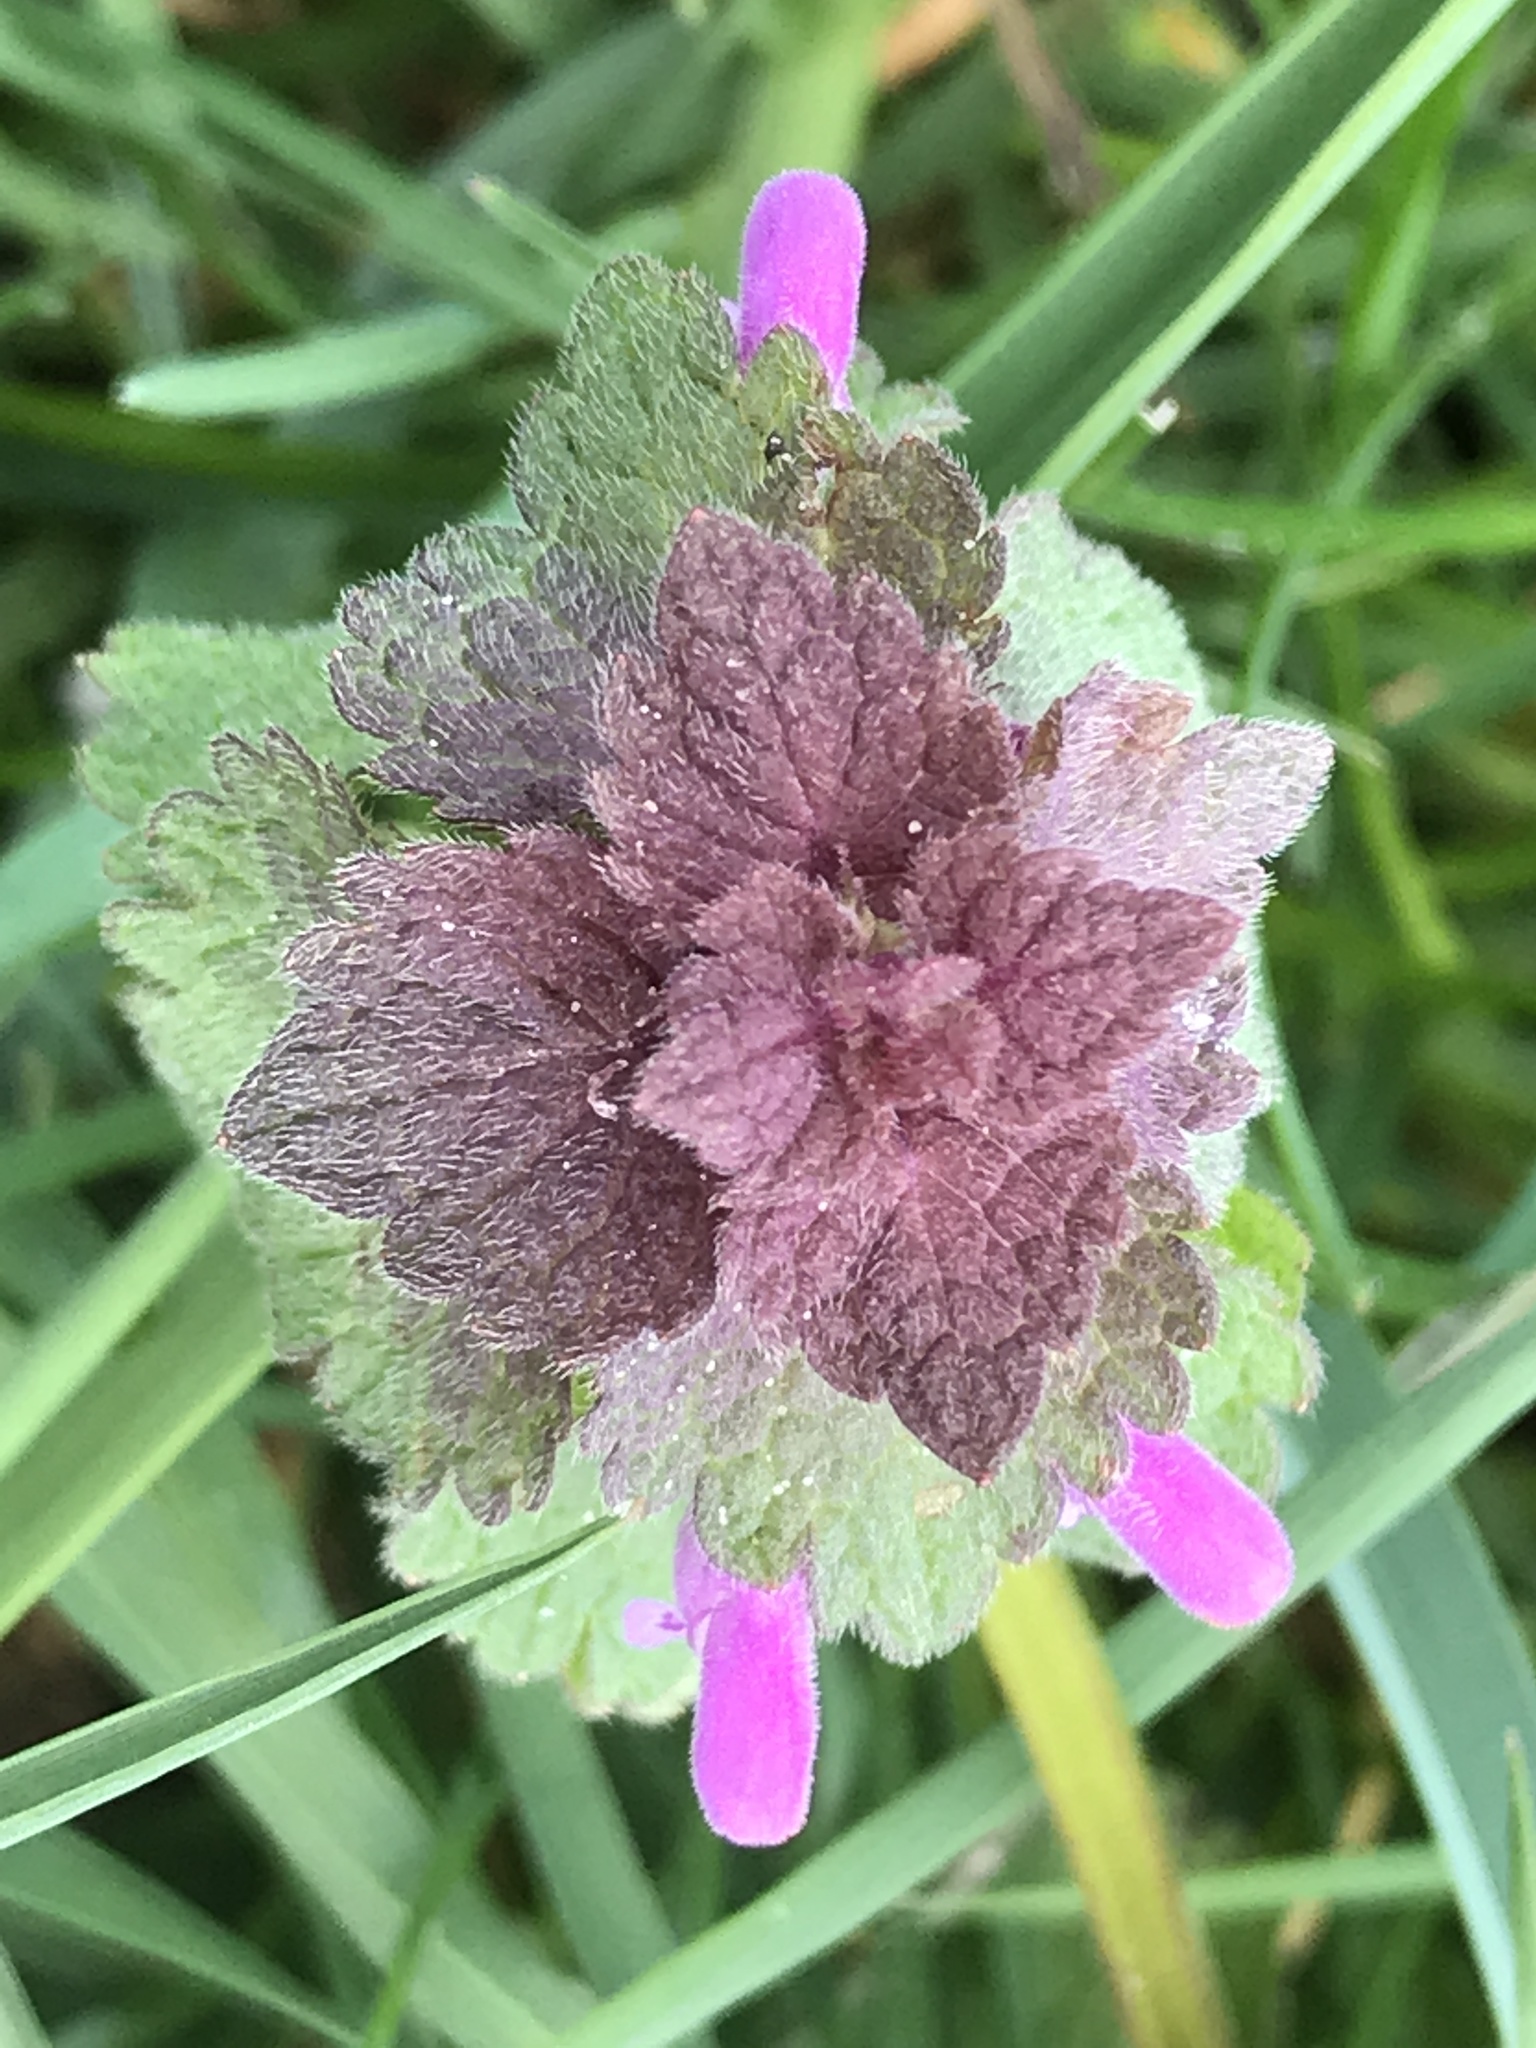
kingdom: Plantae
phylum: Tracheophyta
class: Magnoliopsida
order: Lamiales
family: Lamiaceae
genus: Lamium
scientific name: Lamium purpureum
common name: Red dead-nettle
